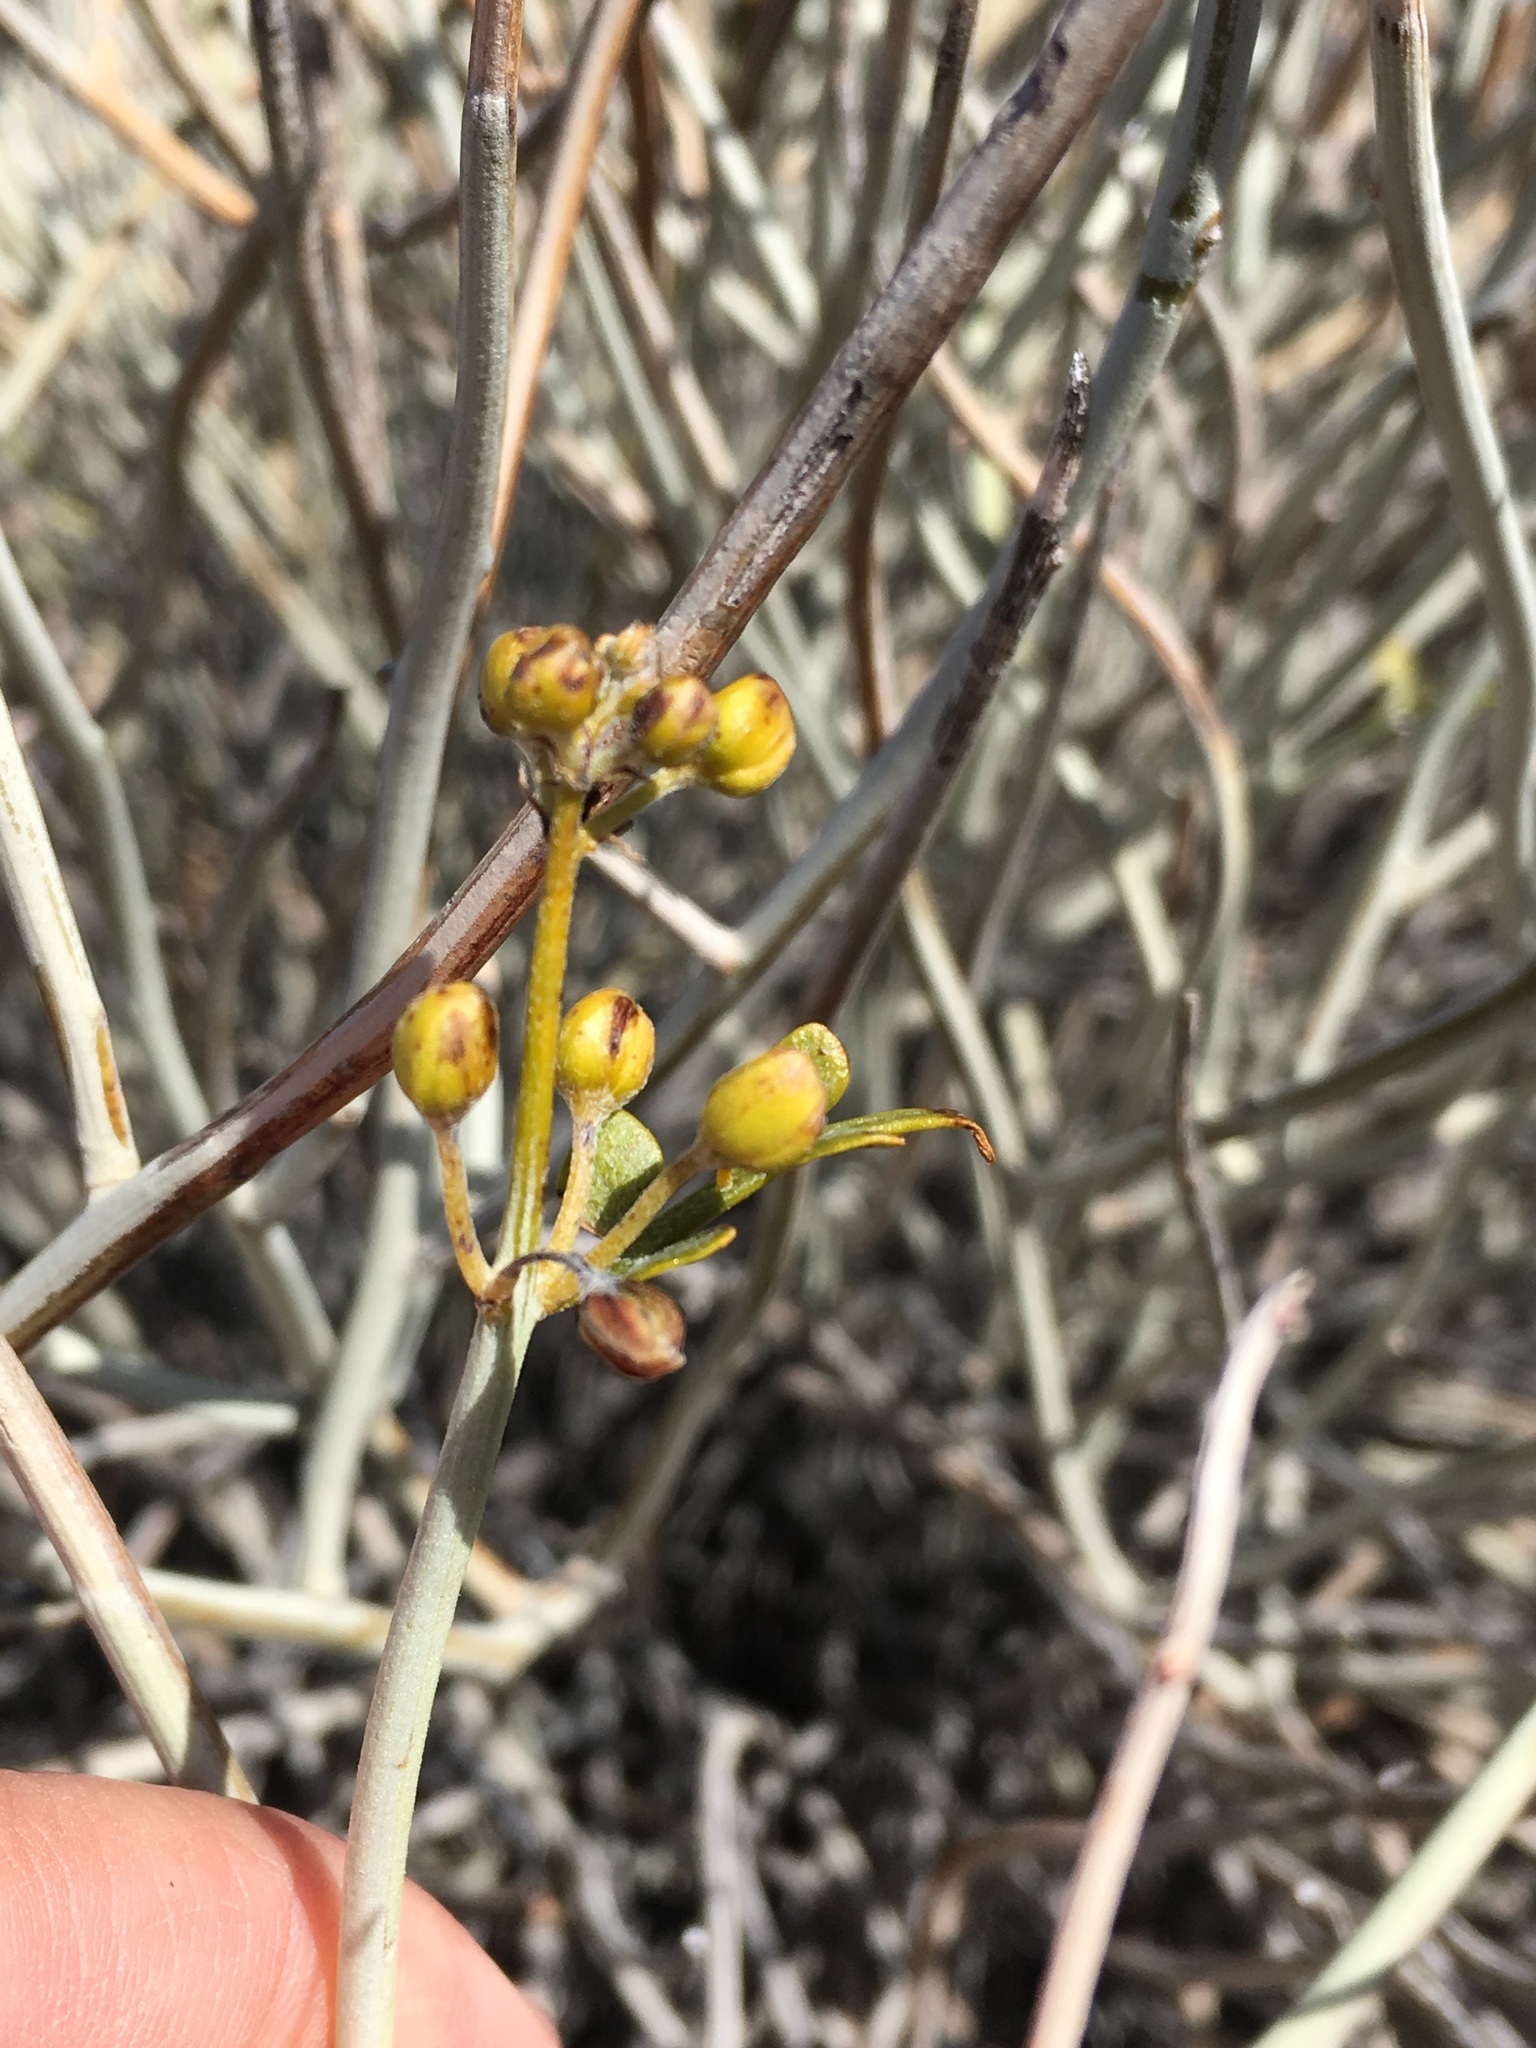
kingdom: Plantae
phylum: Tracheophyta
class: Magnoliopsida
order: Fabales
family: Fabaceae
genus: Senna
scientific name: Senna armata
